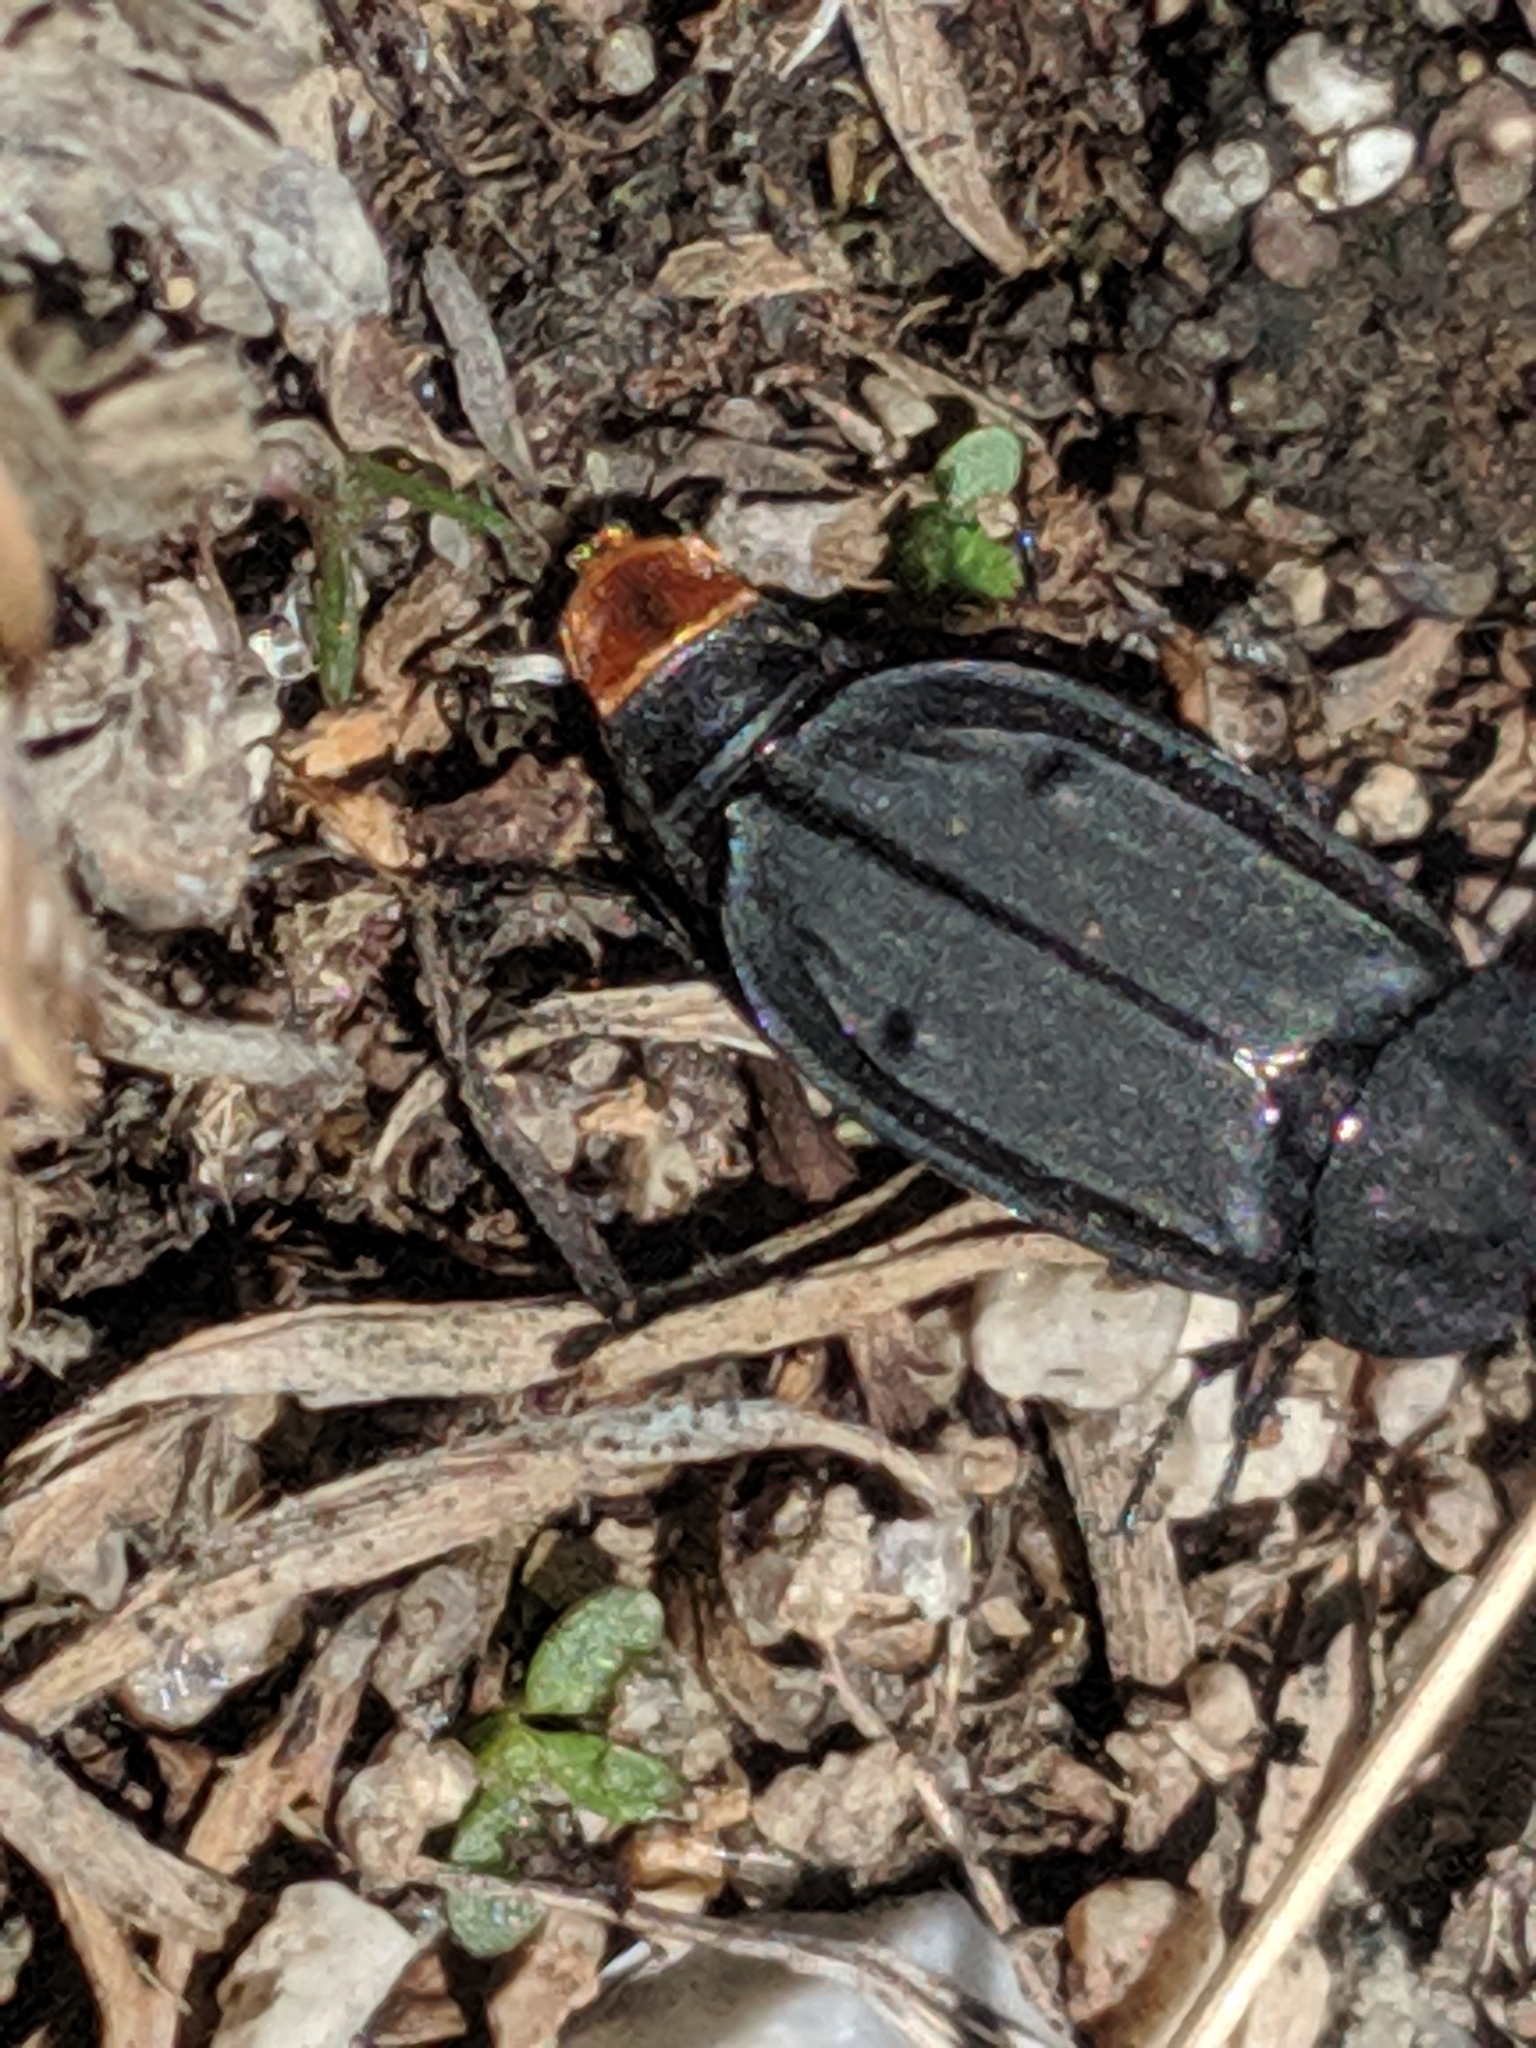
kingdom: Animalia
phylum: Arthropoda
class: Insecta
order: Coleoptera
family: Staphylinidae
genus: Thanatophilus
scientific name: Thanatophilus coloradensis
